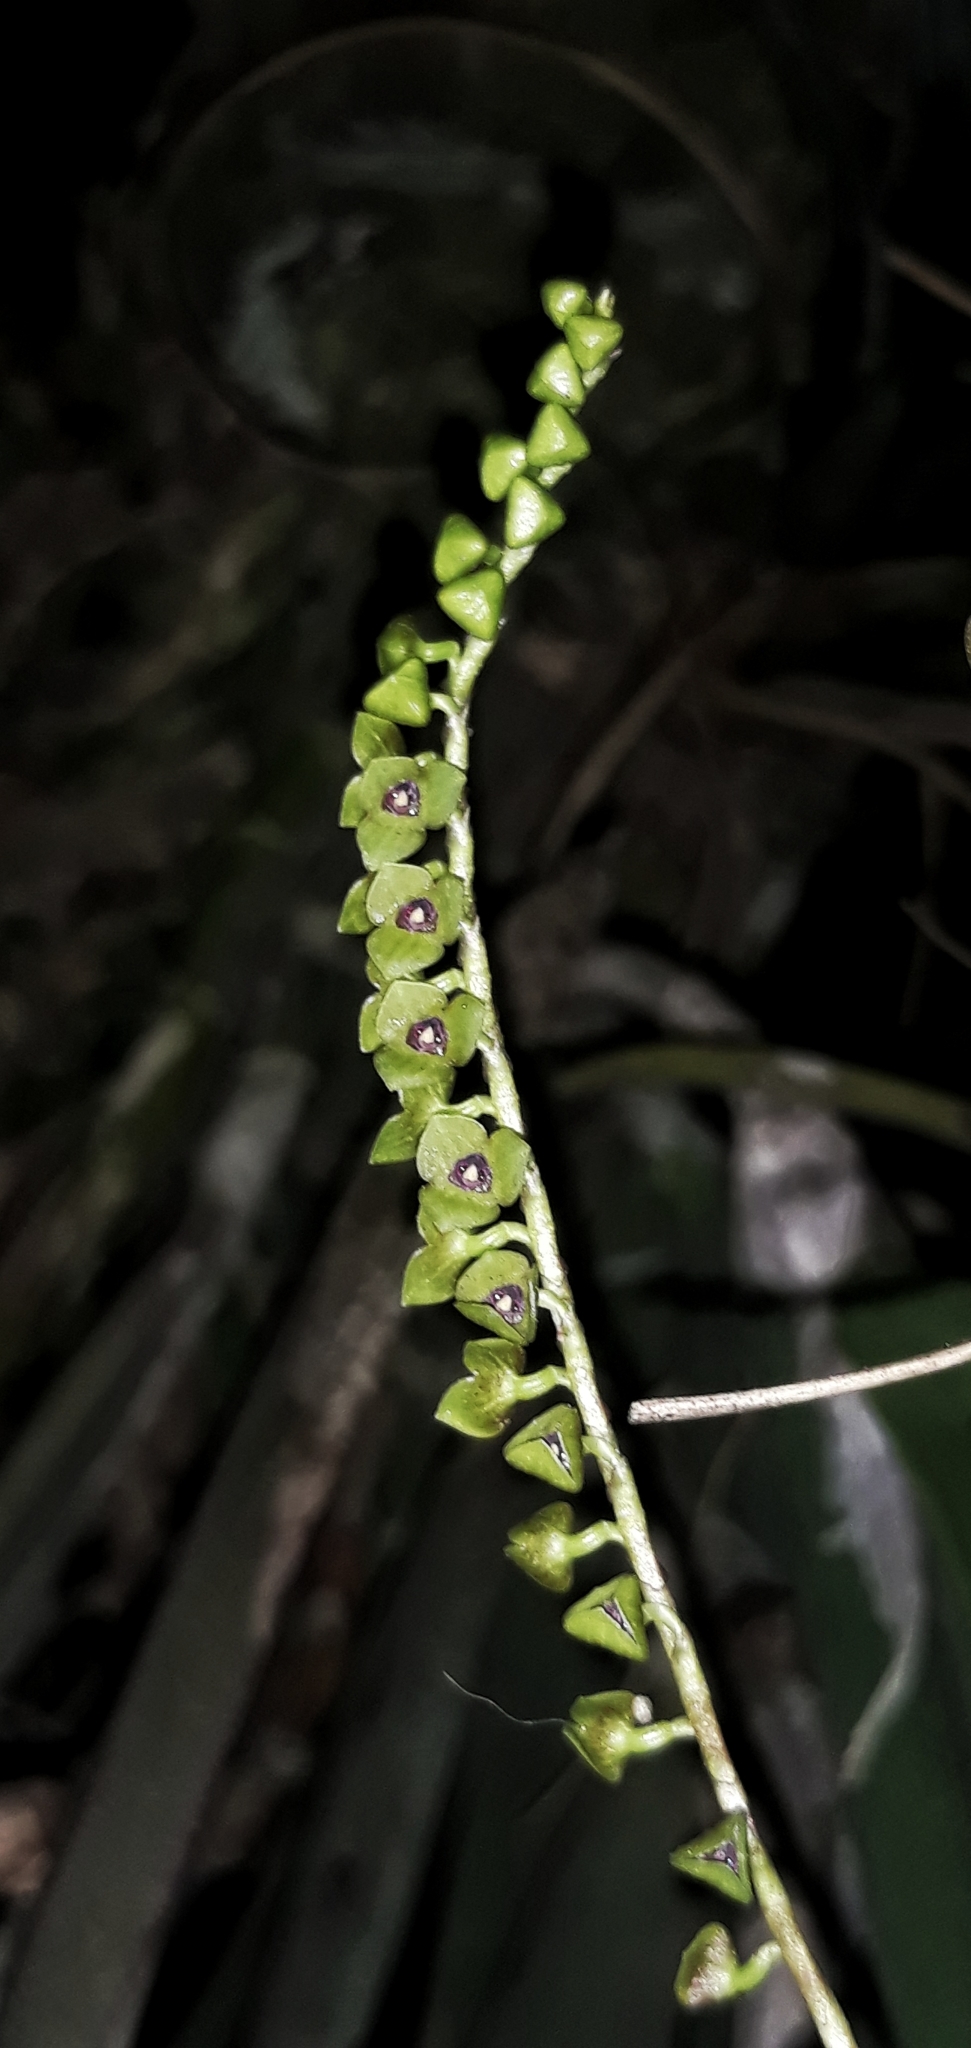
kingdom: Plantae
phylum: Tracheophyta
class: Liliopsida
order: Asparagales
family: Orchidaceae
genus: Stelis
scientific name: Stelis purpurascens
